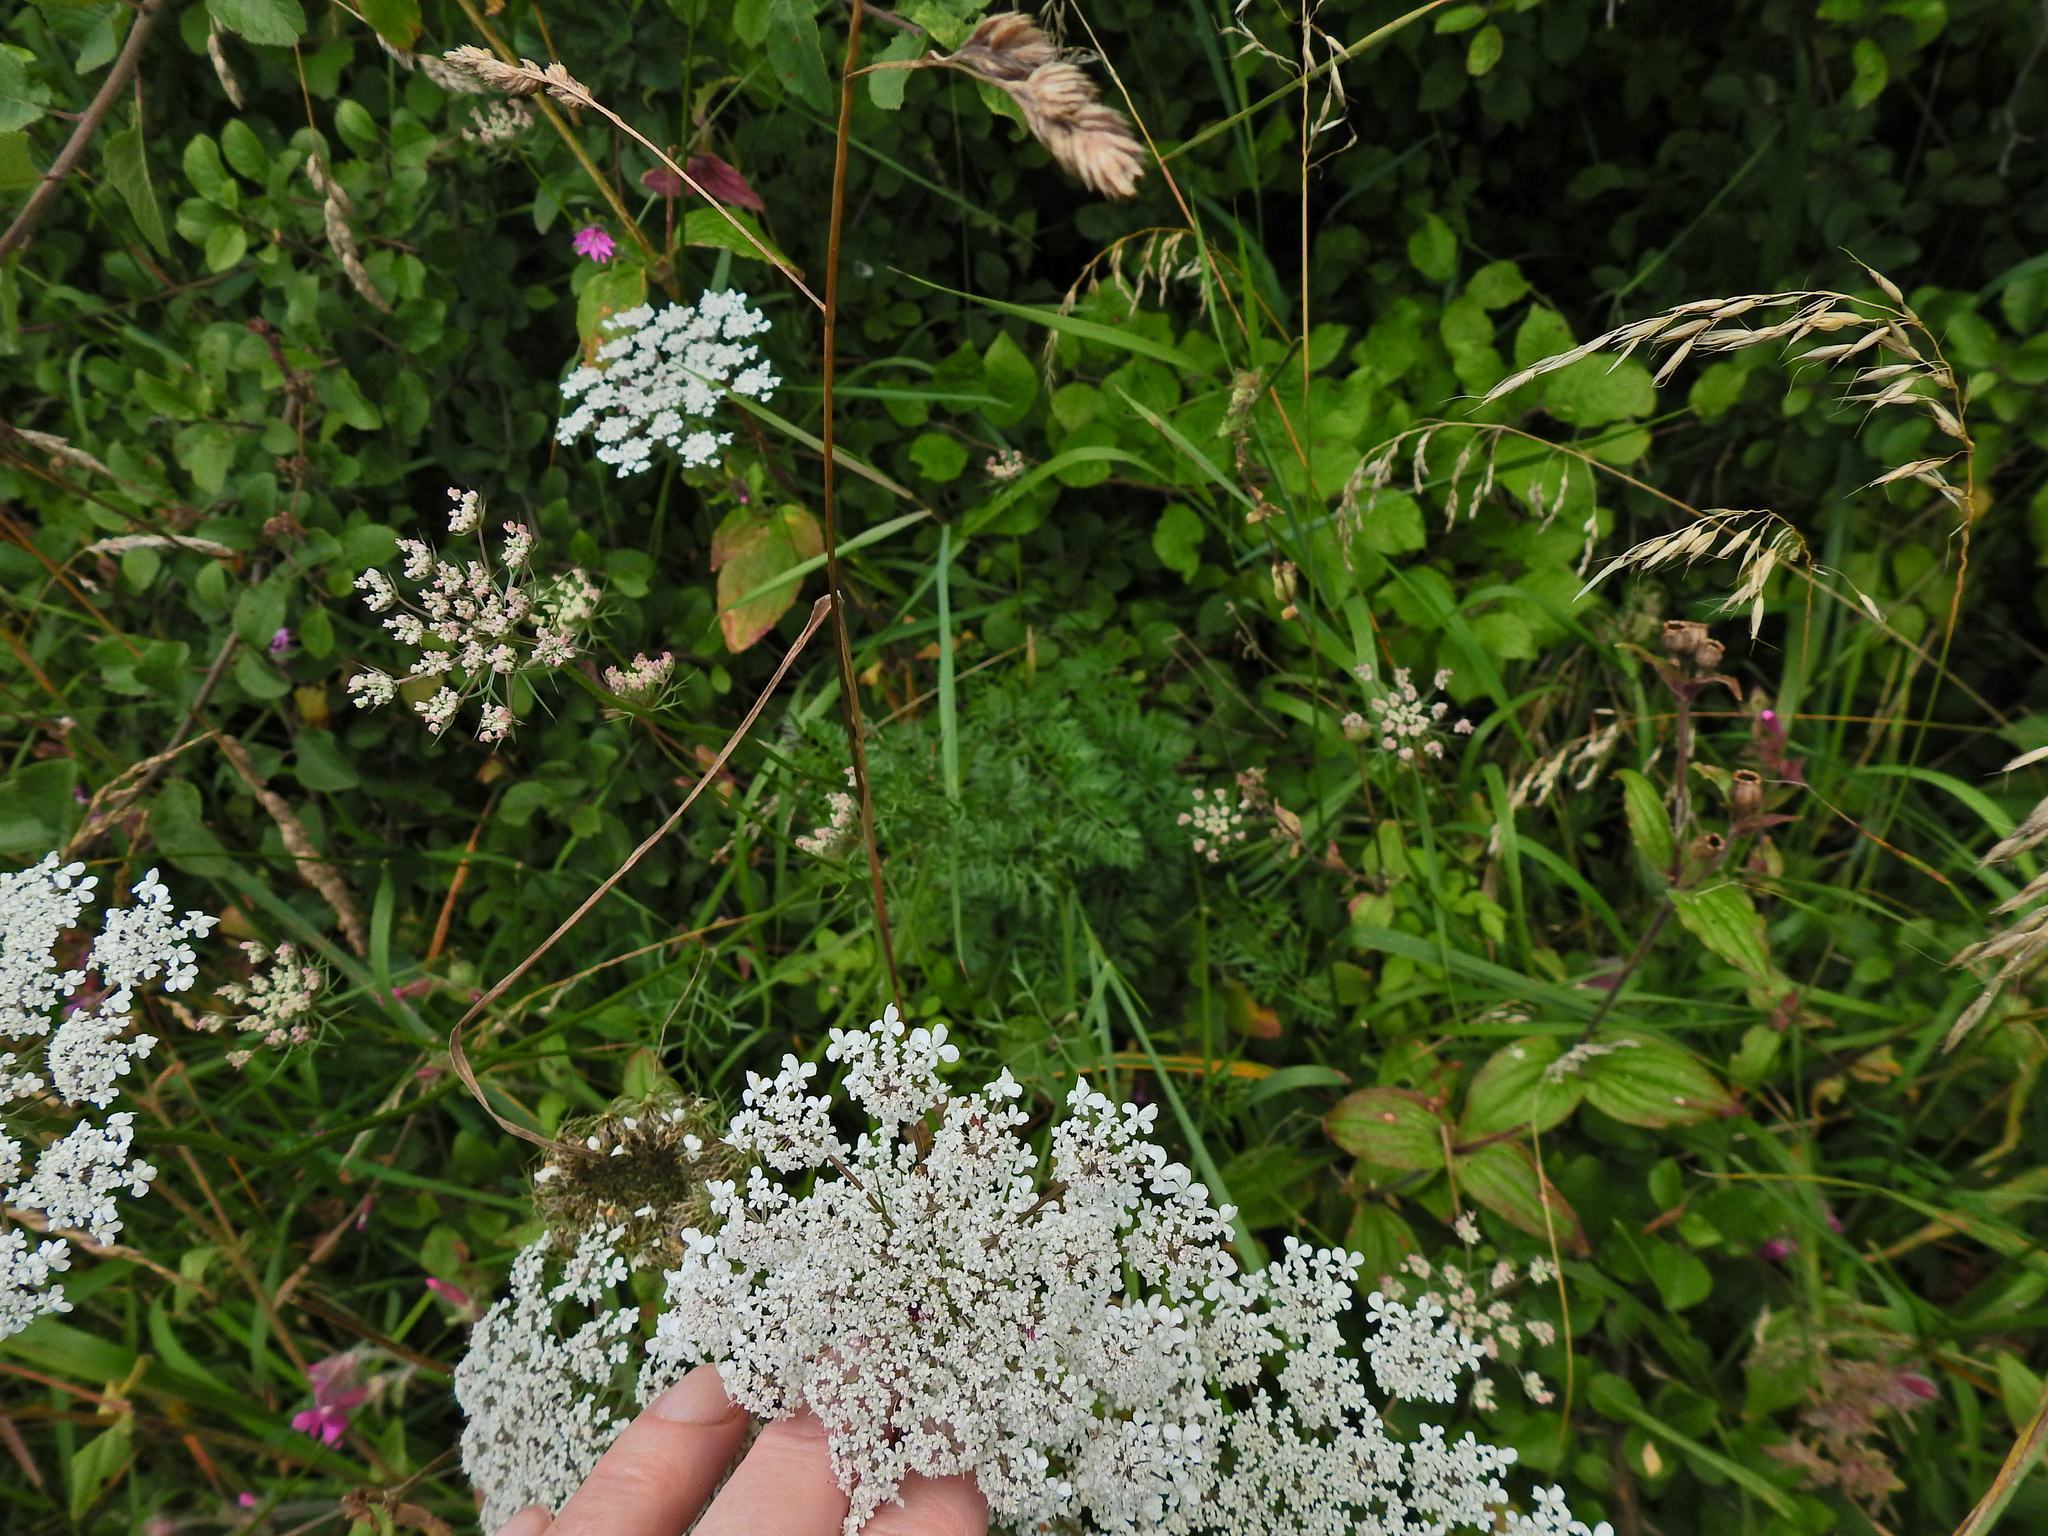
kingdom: Plantae
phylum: Tracheophyta
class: Magnoliopsida
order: Apiales
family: Apiaceae
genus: Daucus
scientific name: Daucus carota
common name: Wild carrot
